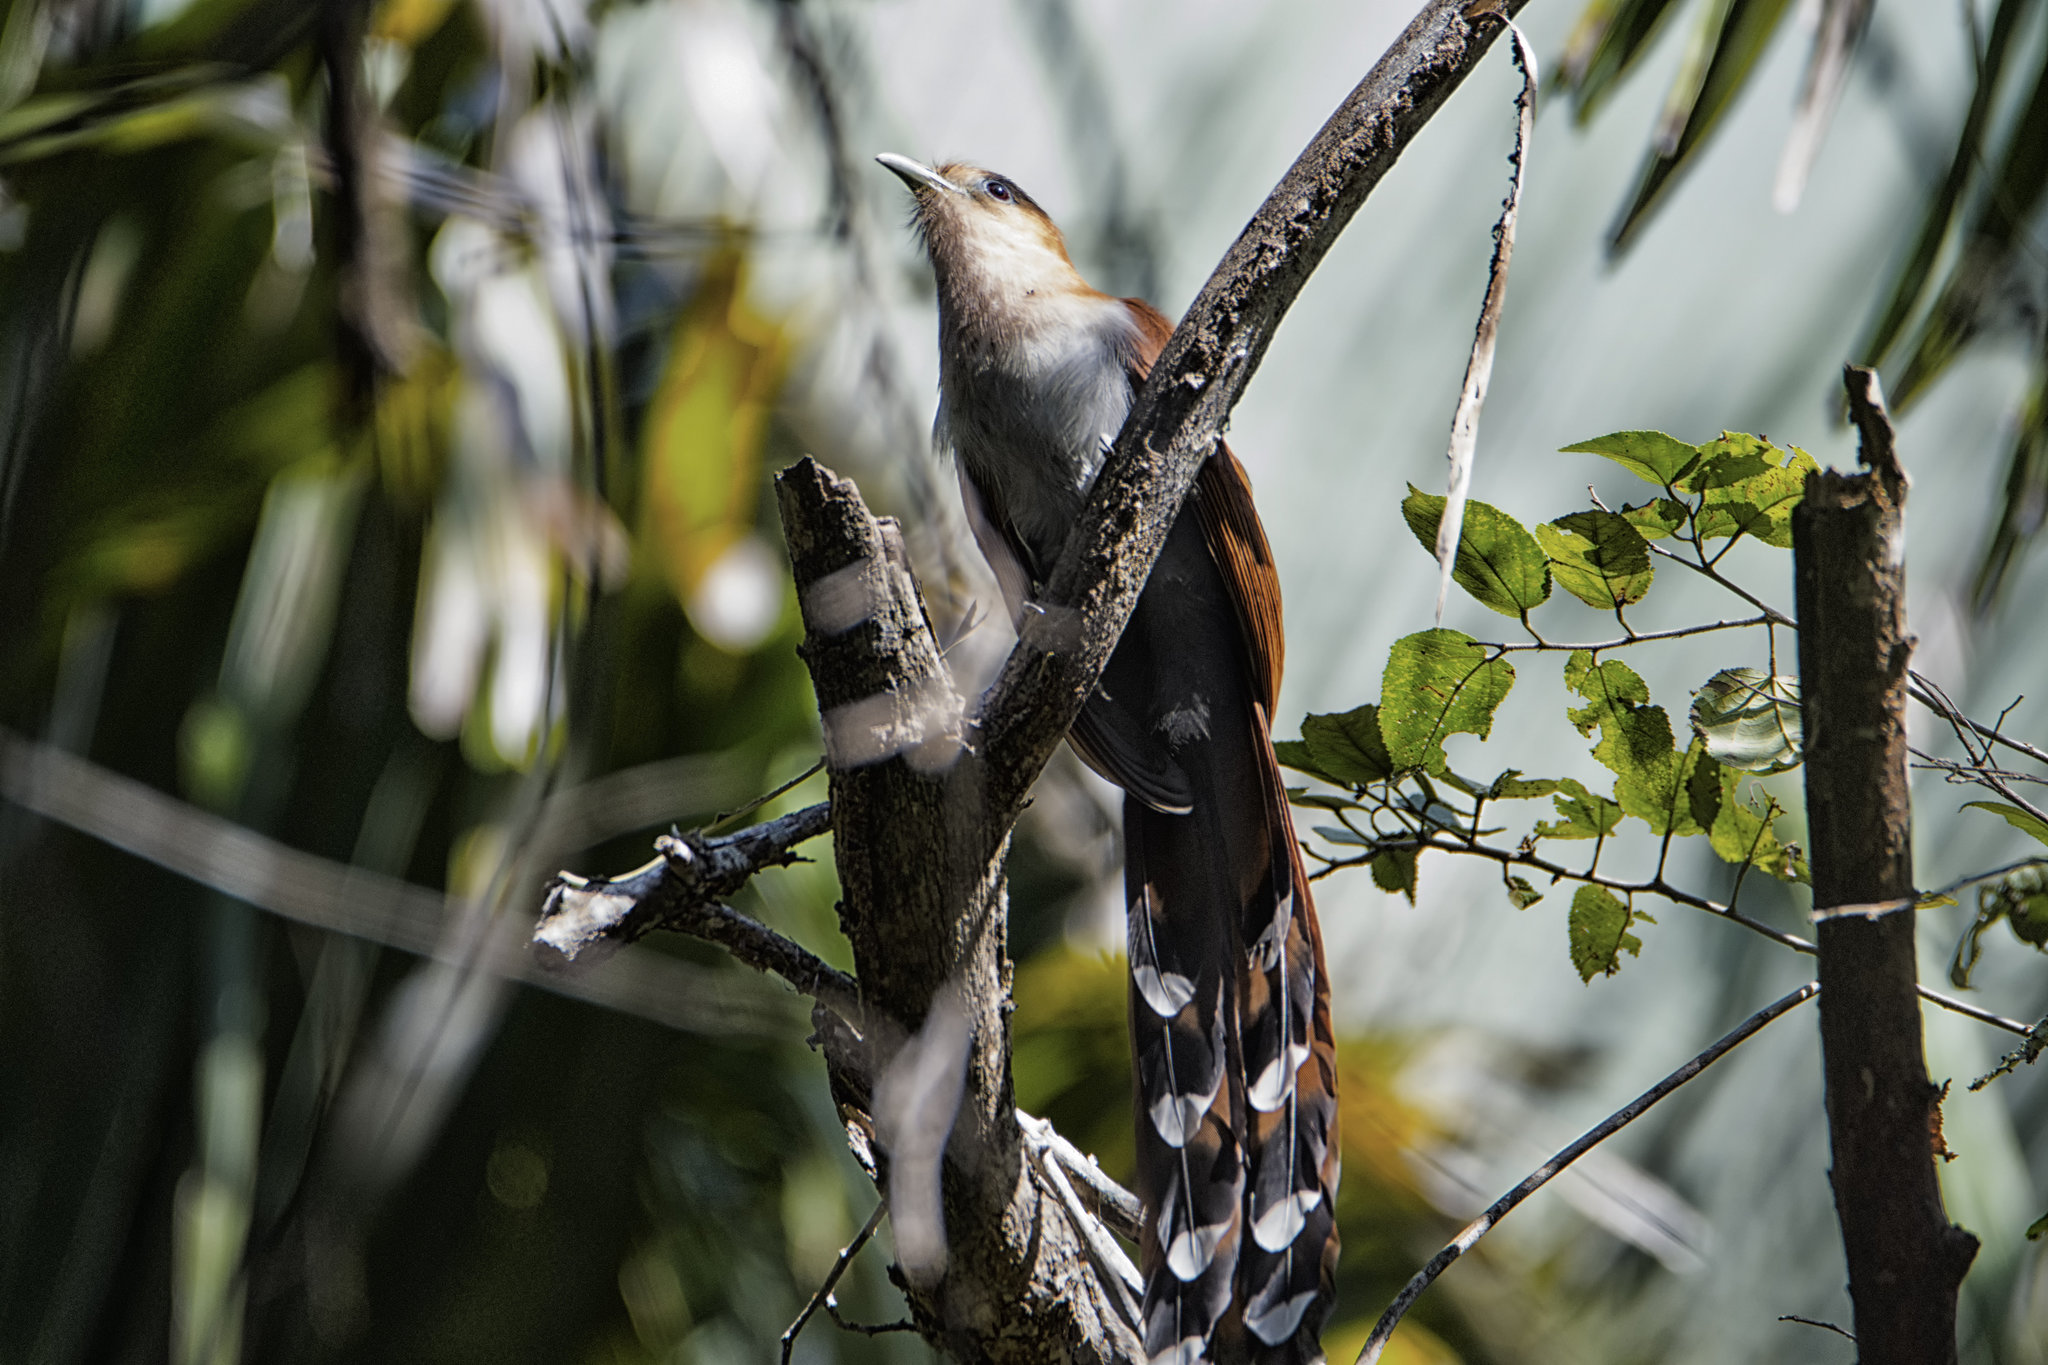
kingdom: Animalia
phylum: Chordata
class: Aves
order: Cuculiformes
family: Cuculidae
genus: Piaya
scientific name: Piaya cayana
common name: Squirrel cuckoo
